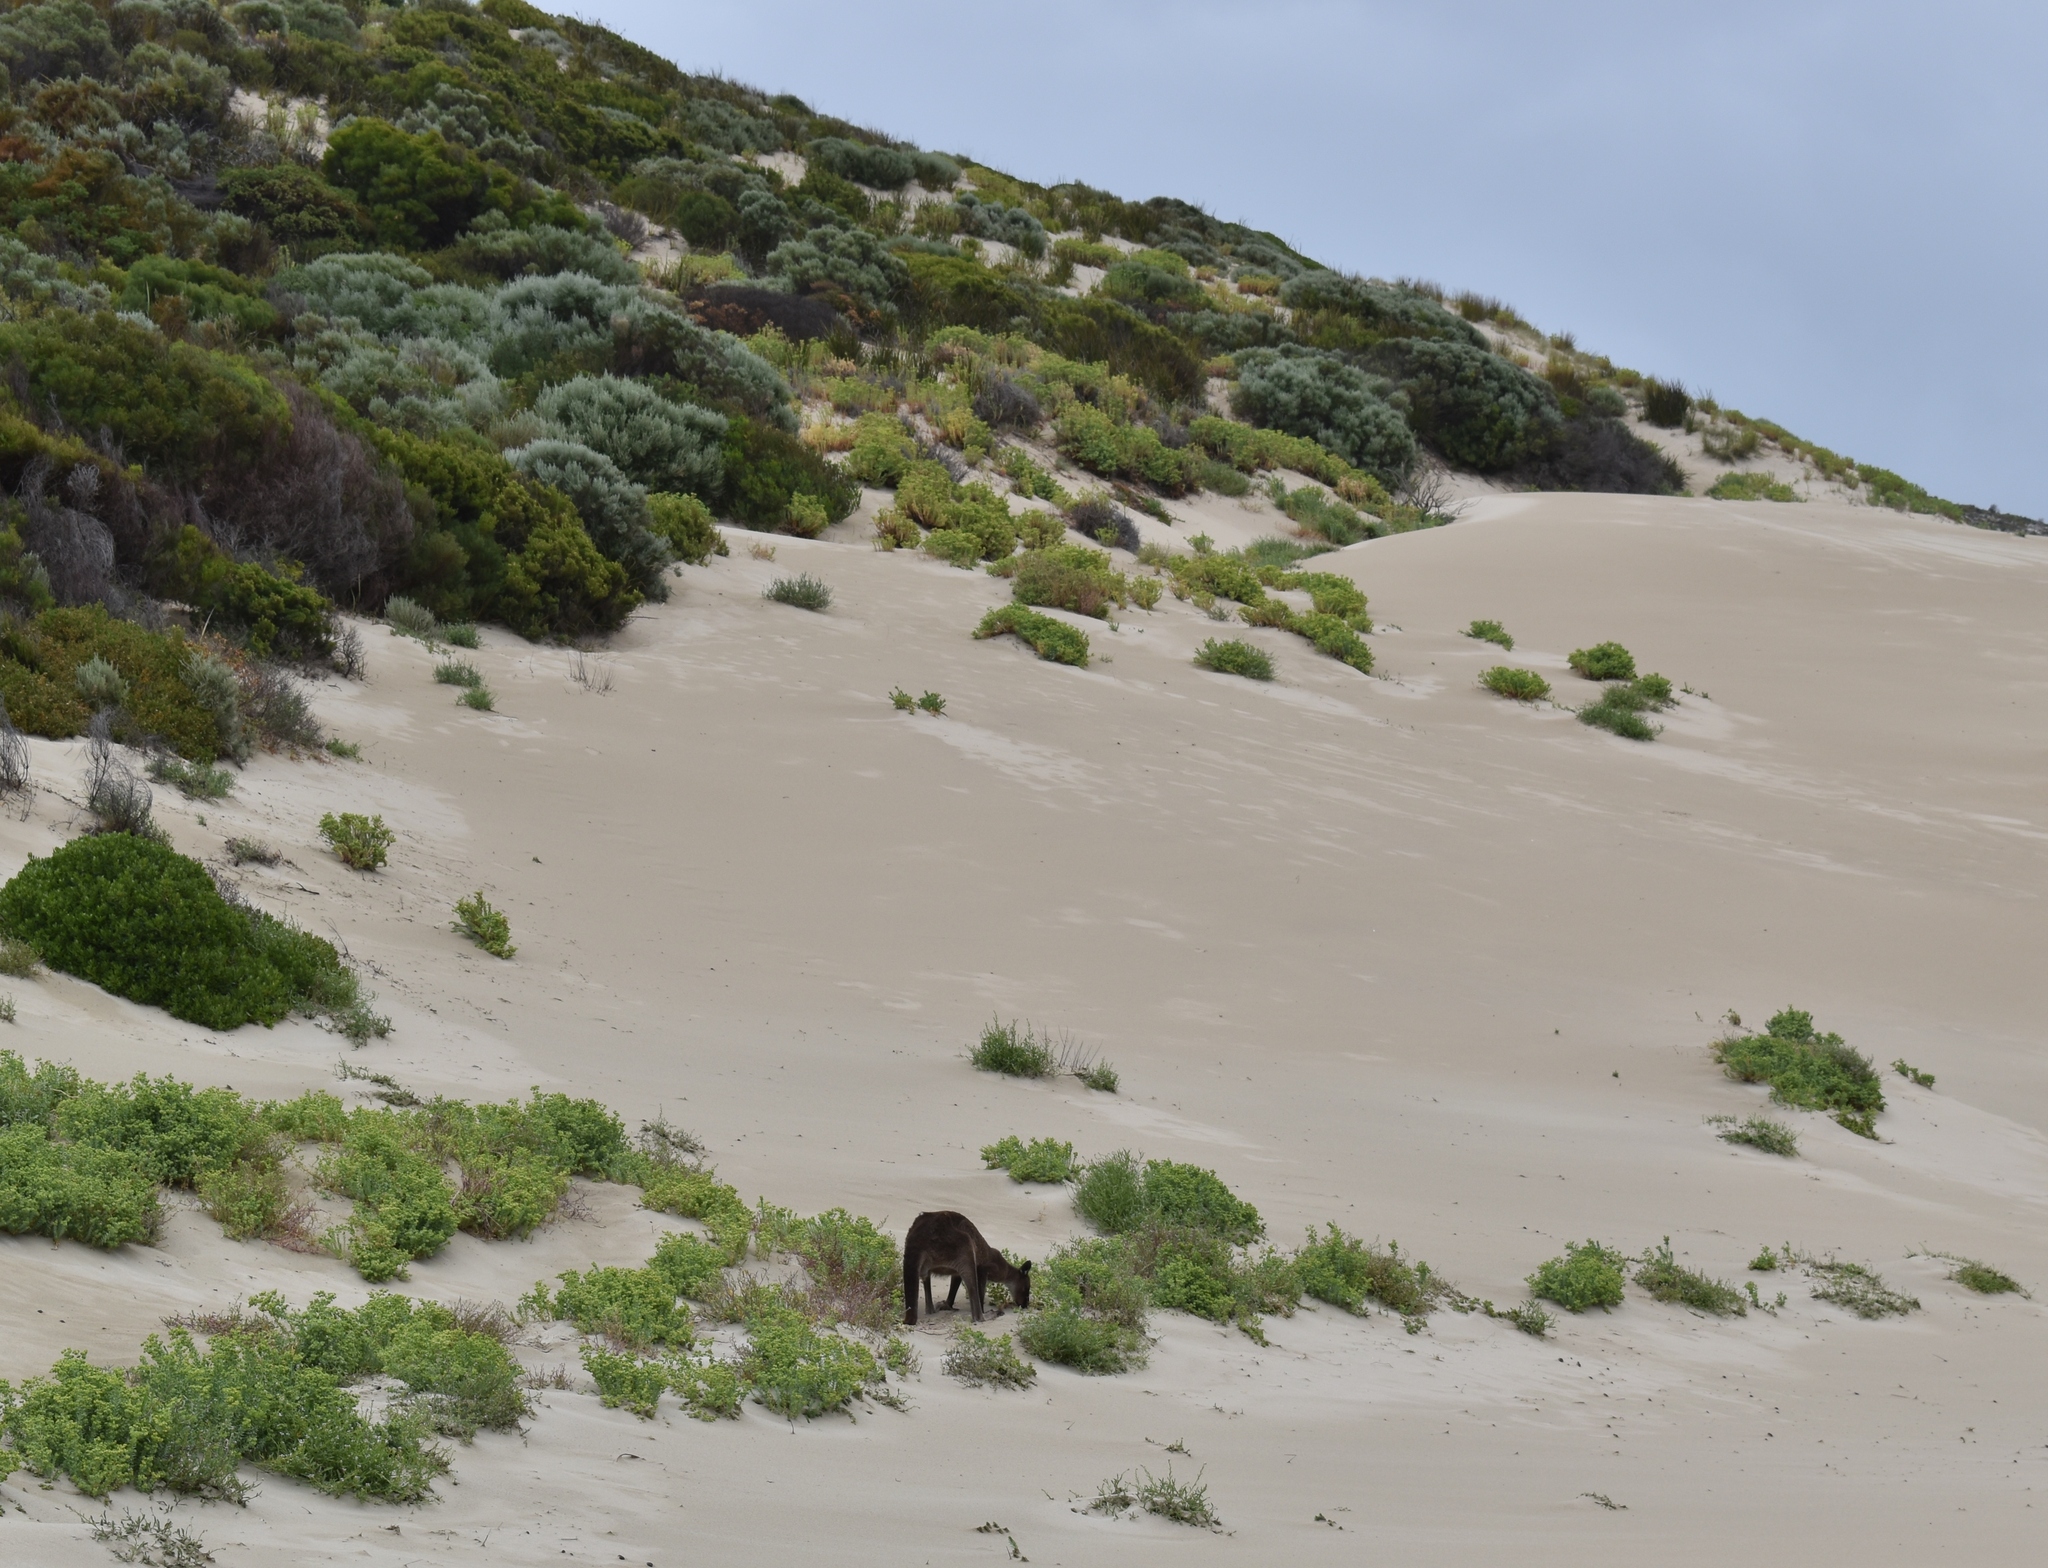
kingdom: Animalia
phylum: Chordata
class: Mammalia
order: Diprotodontia
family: Macropodidae
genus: Macropus
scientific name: Macropus fuliginosus
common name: Western grey kangaroo
